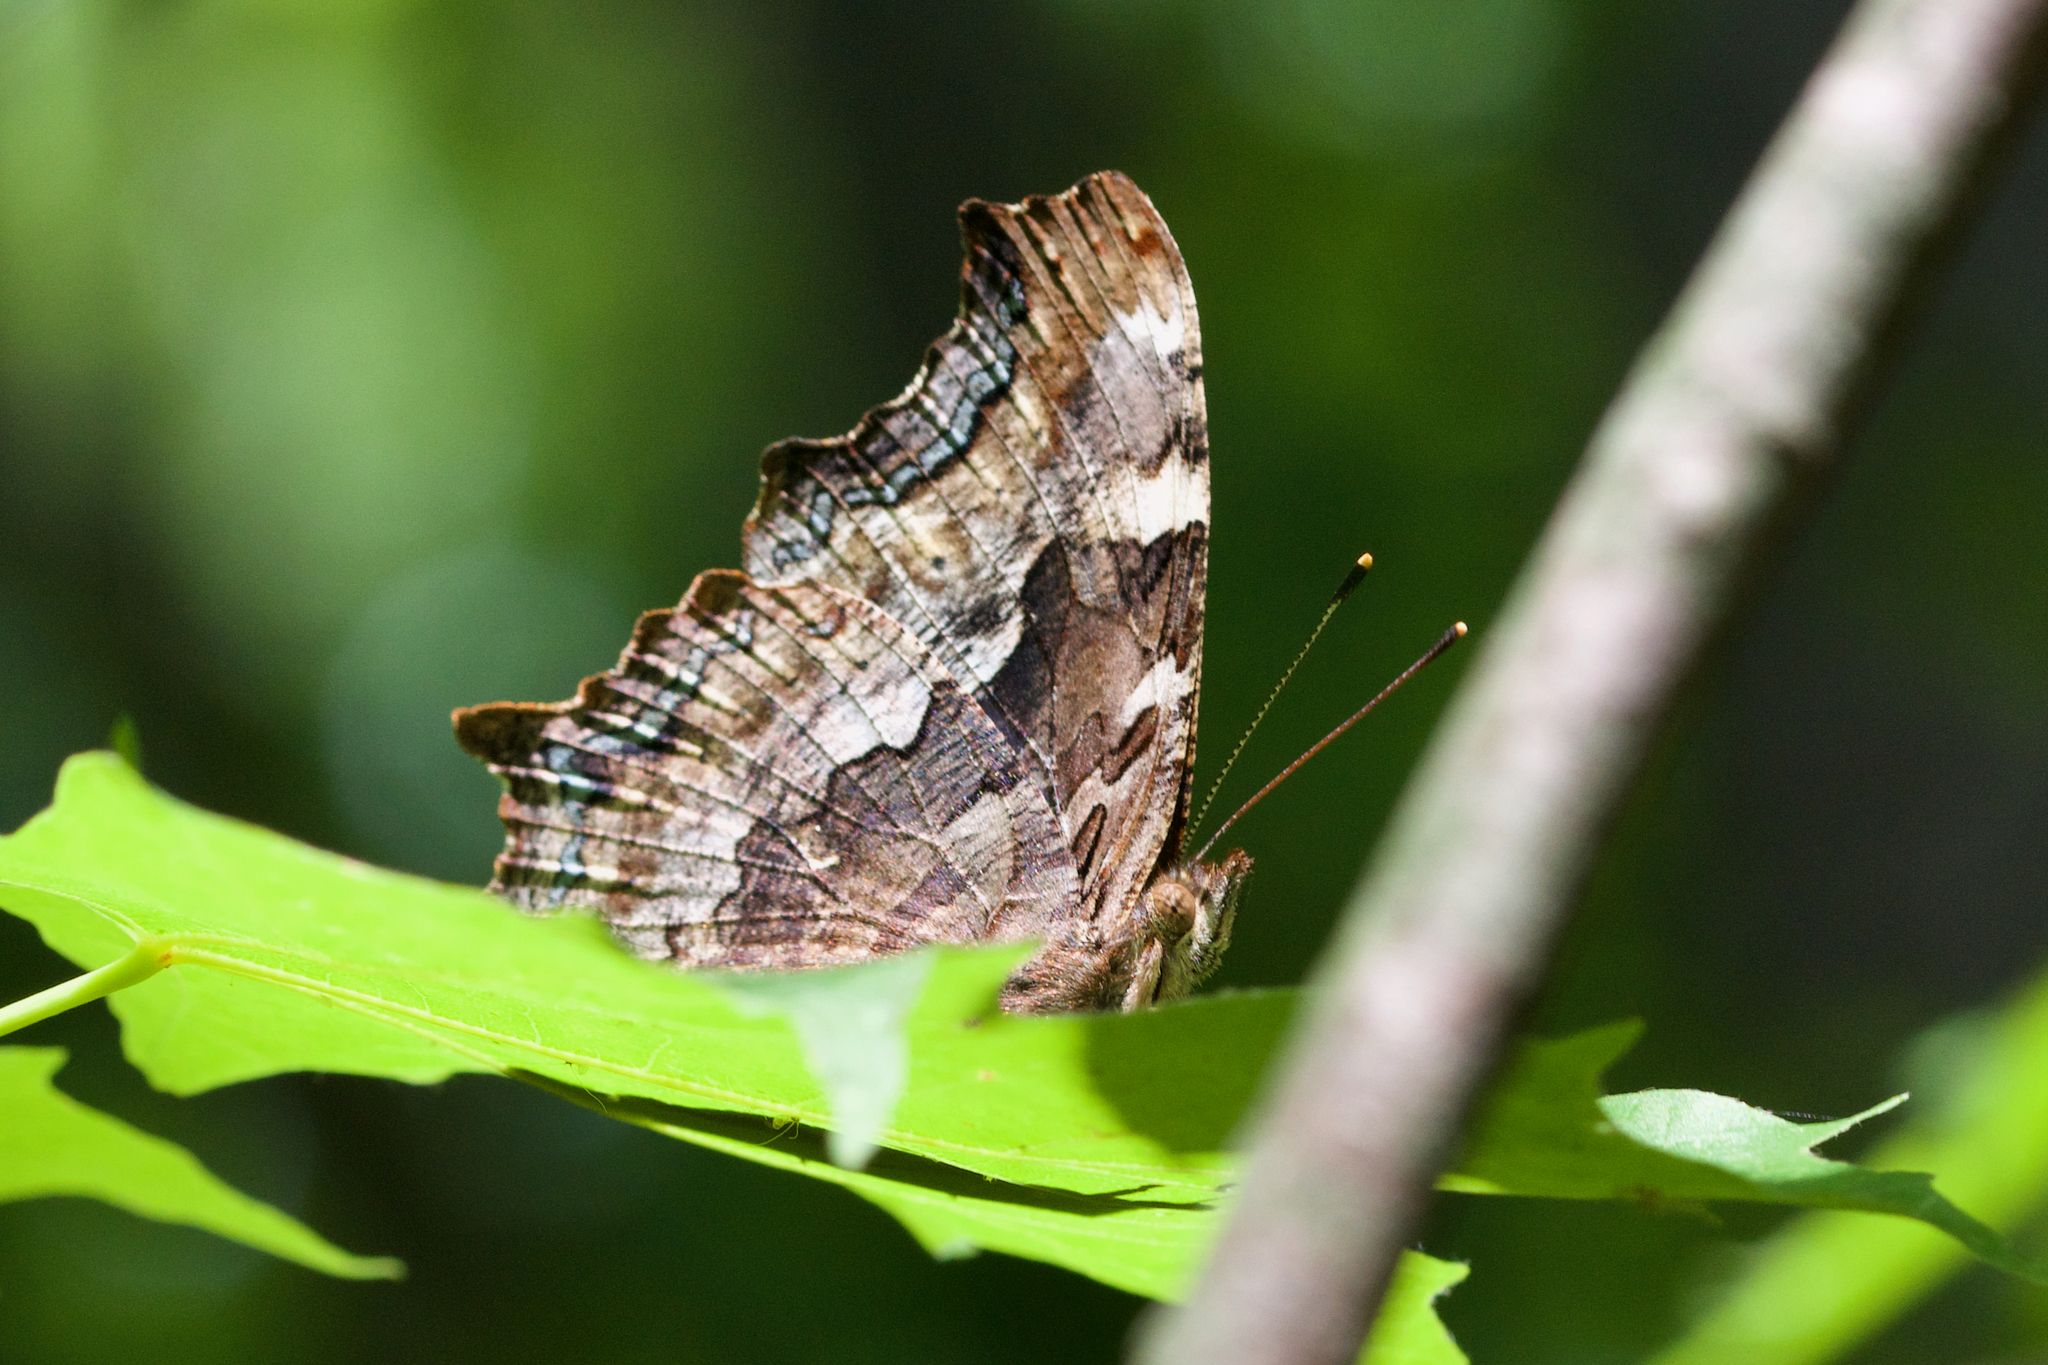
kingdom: Animalia
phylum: Arthropoda
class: Insecta
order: Lepidoptera
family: Nymphalidae
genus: Polygonia
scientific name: Polygonia vaualbum
